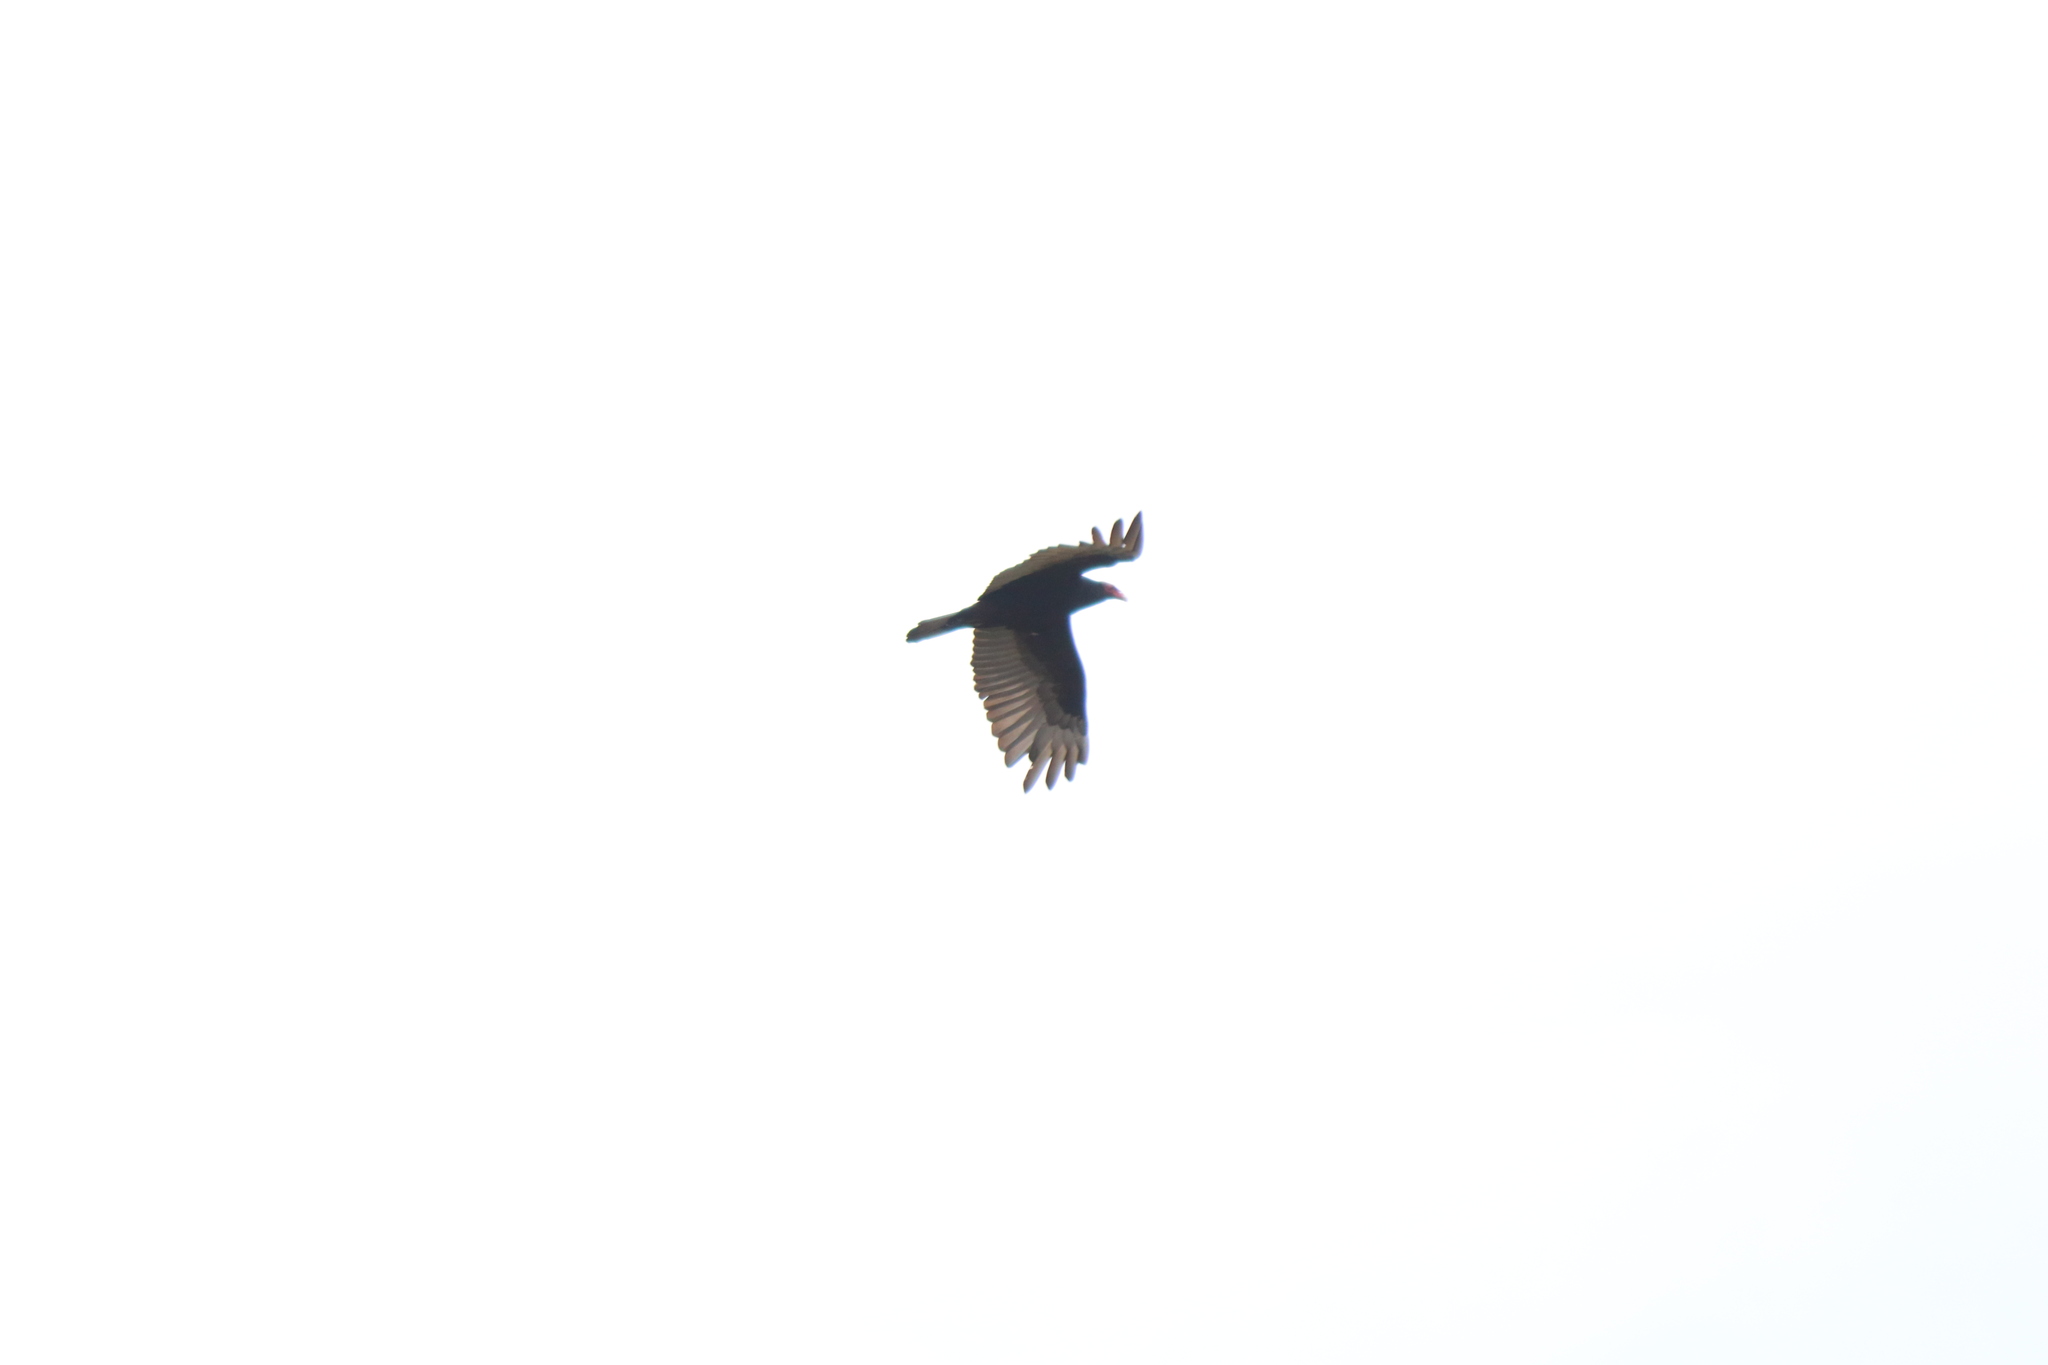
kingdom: Animalia
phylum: Chordata
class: Aves
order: Accipitriformes
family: Cathartidae
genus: Cathartes
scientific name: Cathartes aura
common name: Turkey vulture
